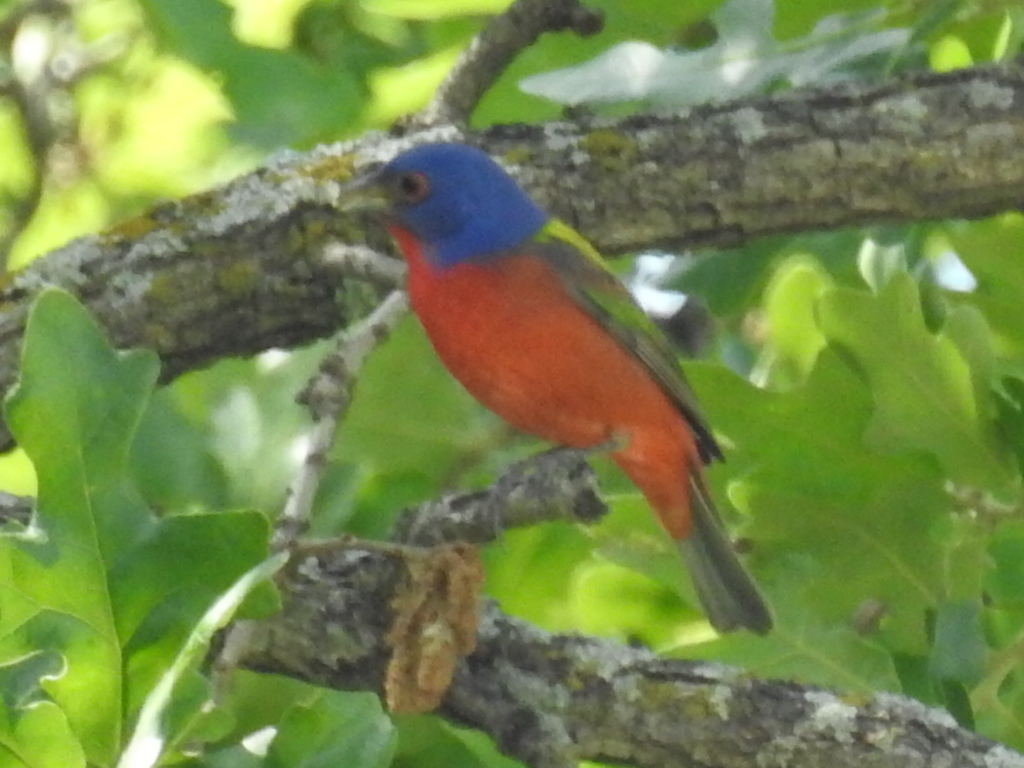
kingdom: Animalia
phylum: Chordata
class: Aves
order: Passeriformes
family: Cardinalidae
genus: Passerina
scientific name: Passerina ciris
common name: Painted bunting
